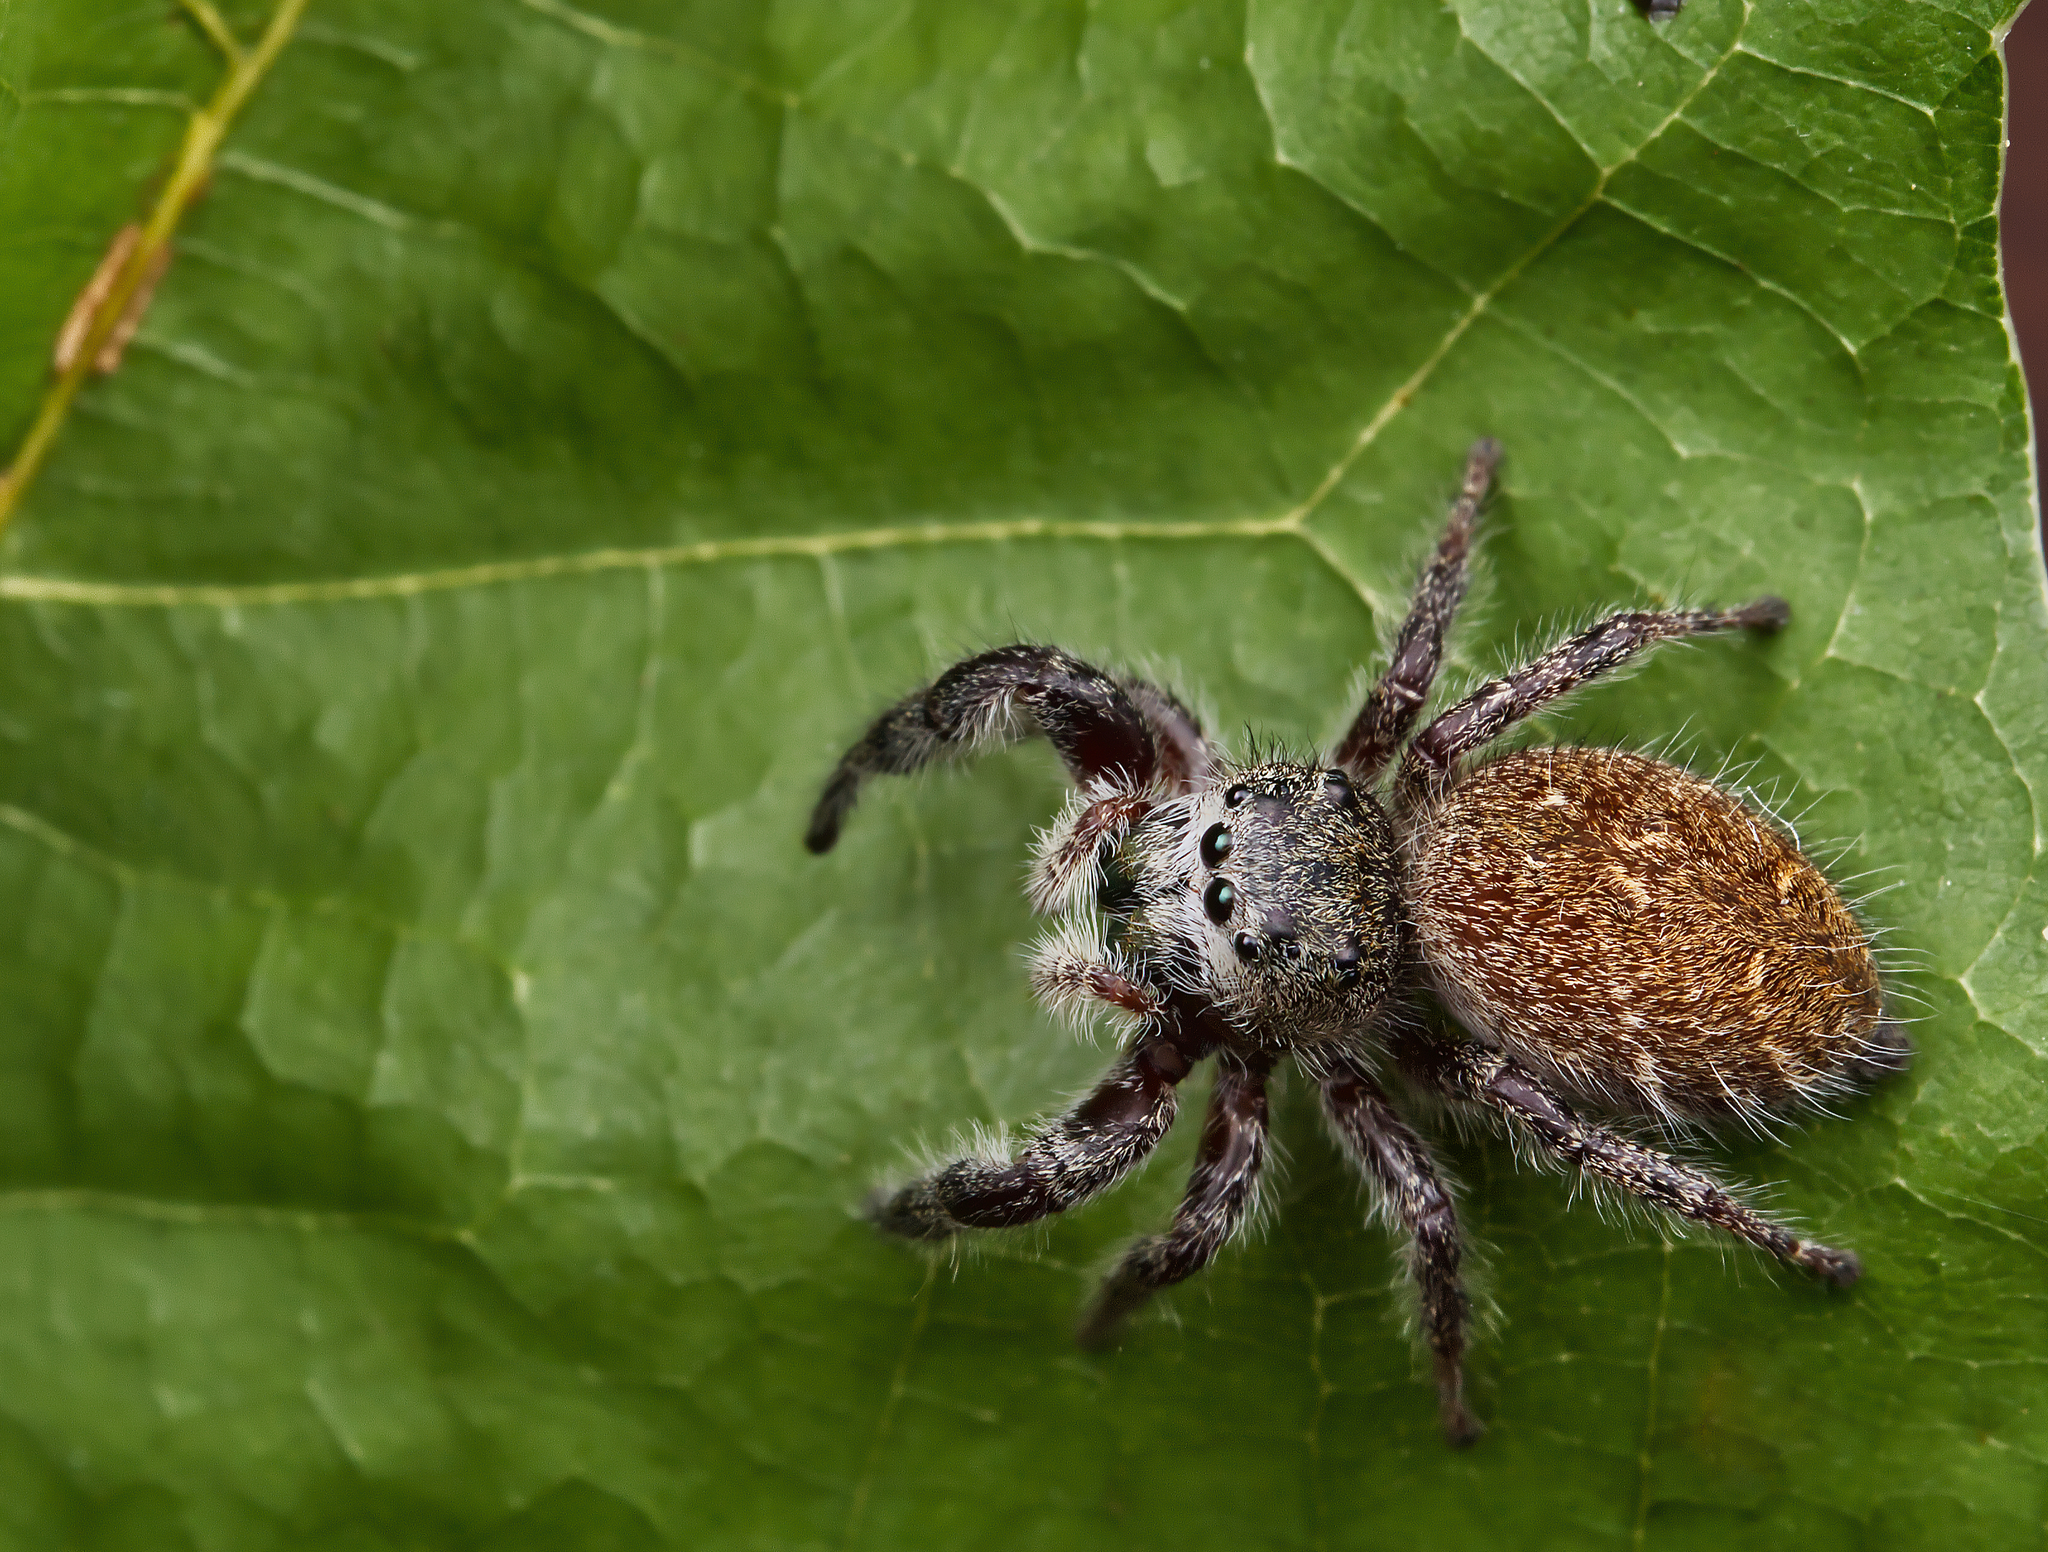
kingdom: Animalia
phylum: Arthropoda
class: Arachnida
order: Araneae
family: Salticidae
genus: Phidippus
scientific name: Phidippus princeps
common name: Grayish jumping spider
